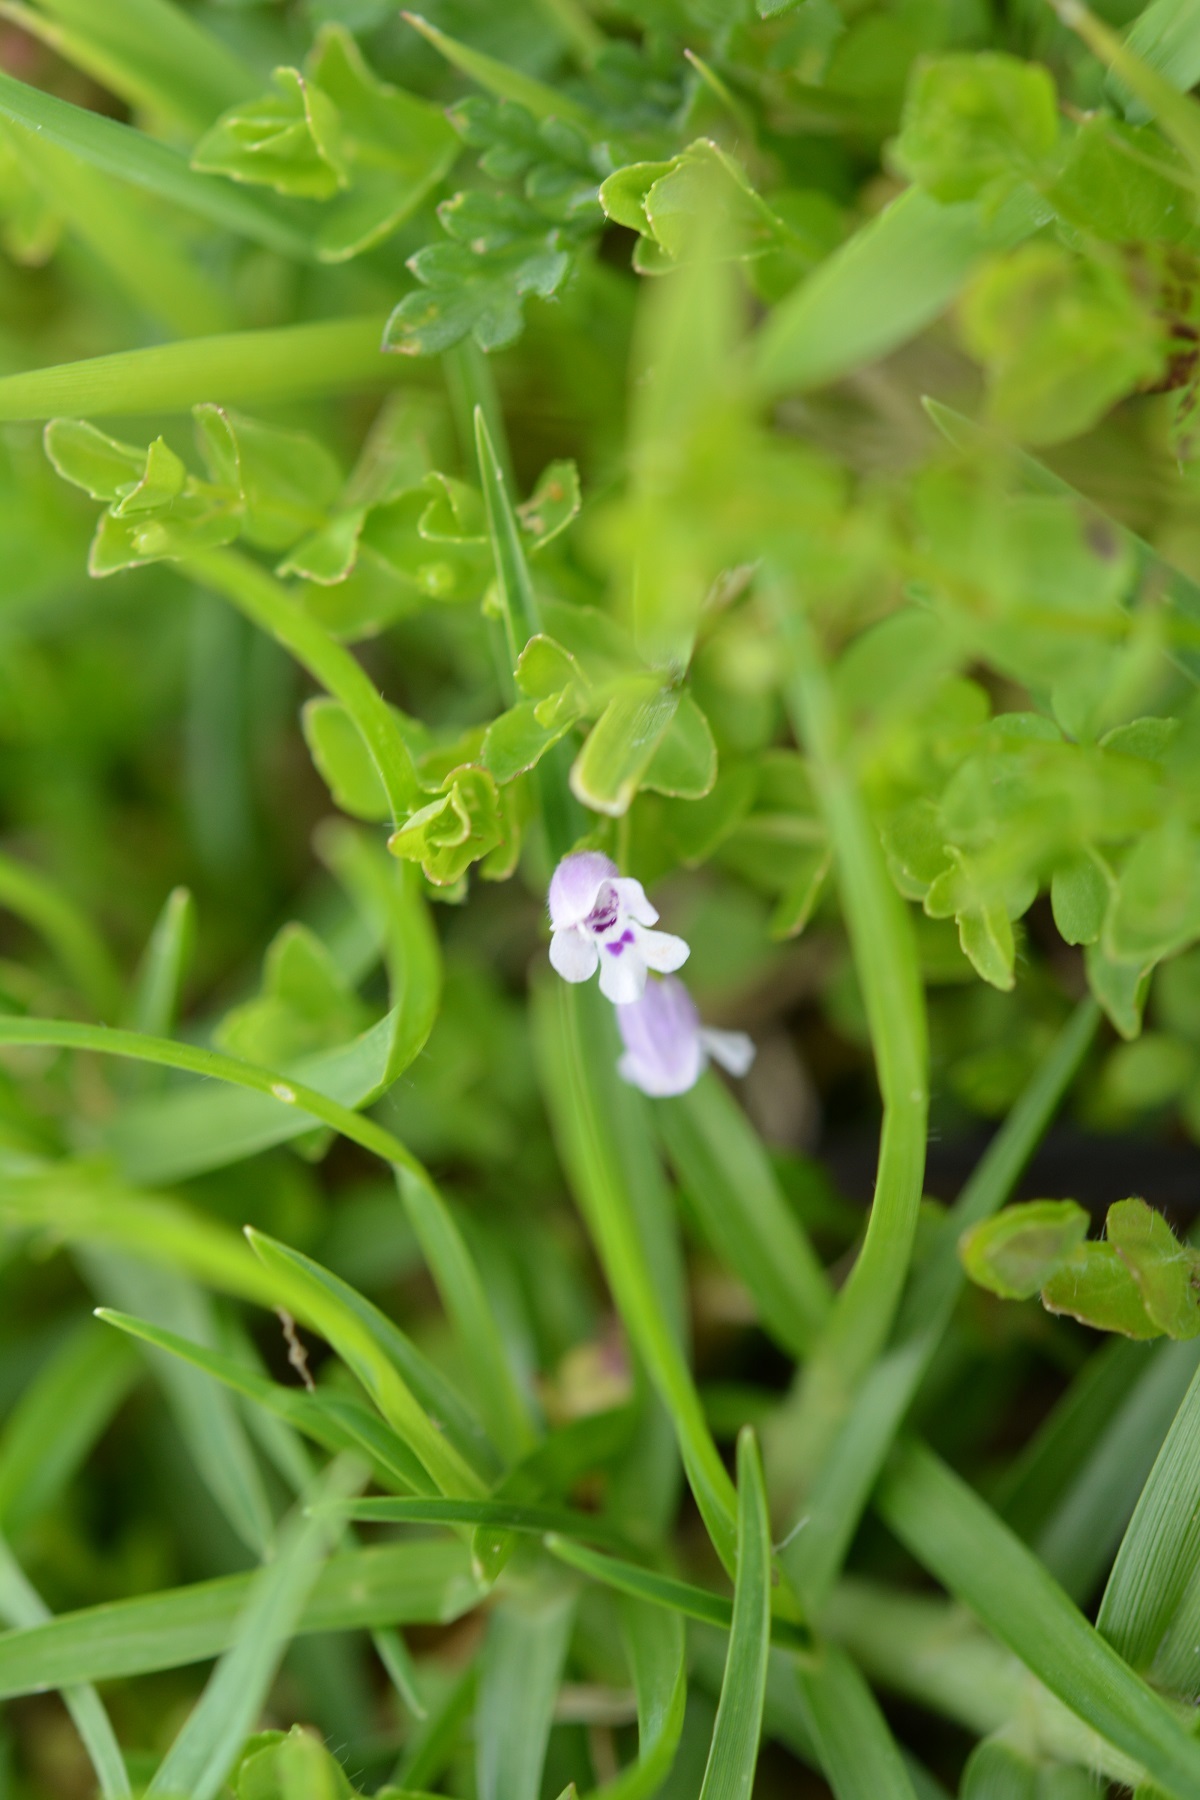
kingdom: Plantae
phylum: Tracheophyta
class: Magnoliopsida
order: Lamiales
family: Lamiaceae
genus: Clinopodium
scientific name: Clinopodium brownei
